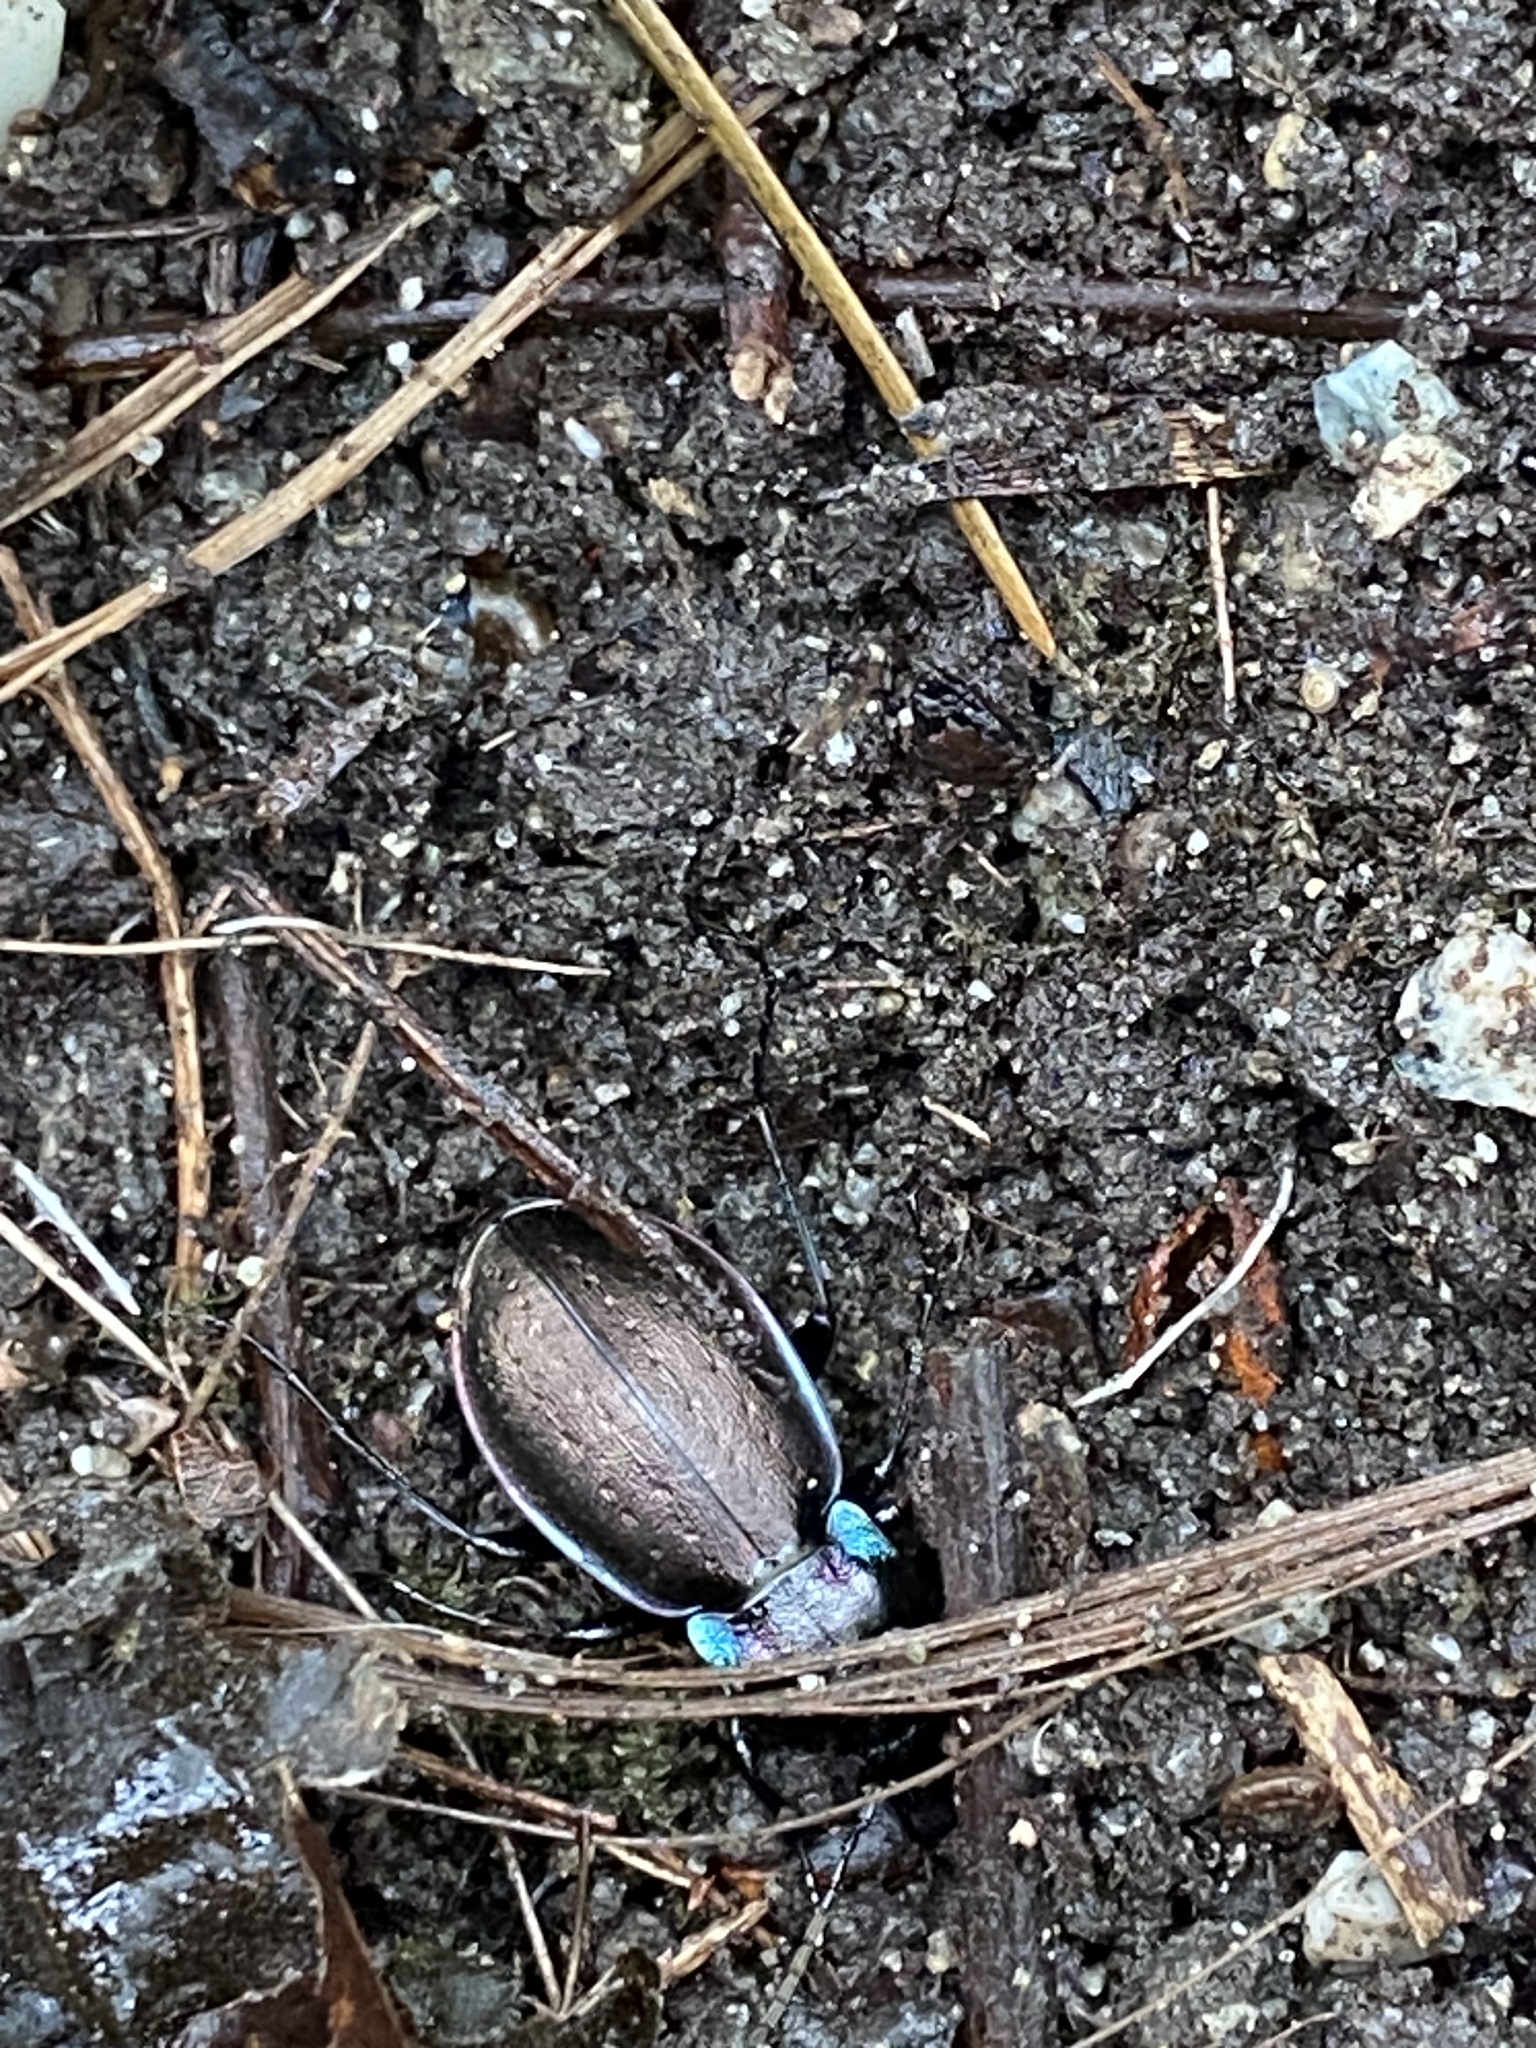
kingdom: Animalia
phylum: Arthropoda
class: Insecta
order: Coleoptera
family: Carabidae
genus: Carabus
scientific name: Carabus nemoralis
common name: European ground beetle
